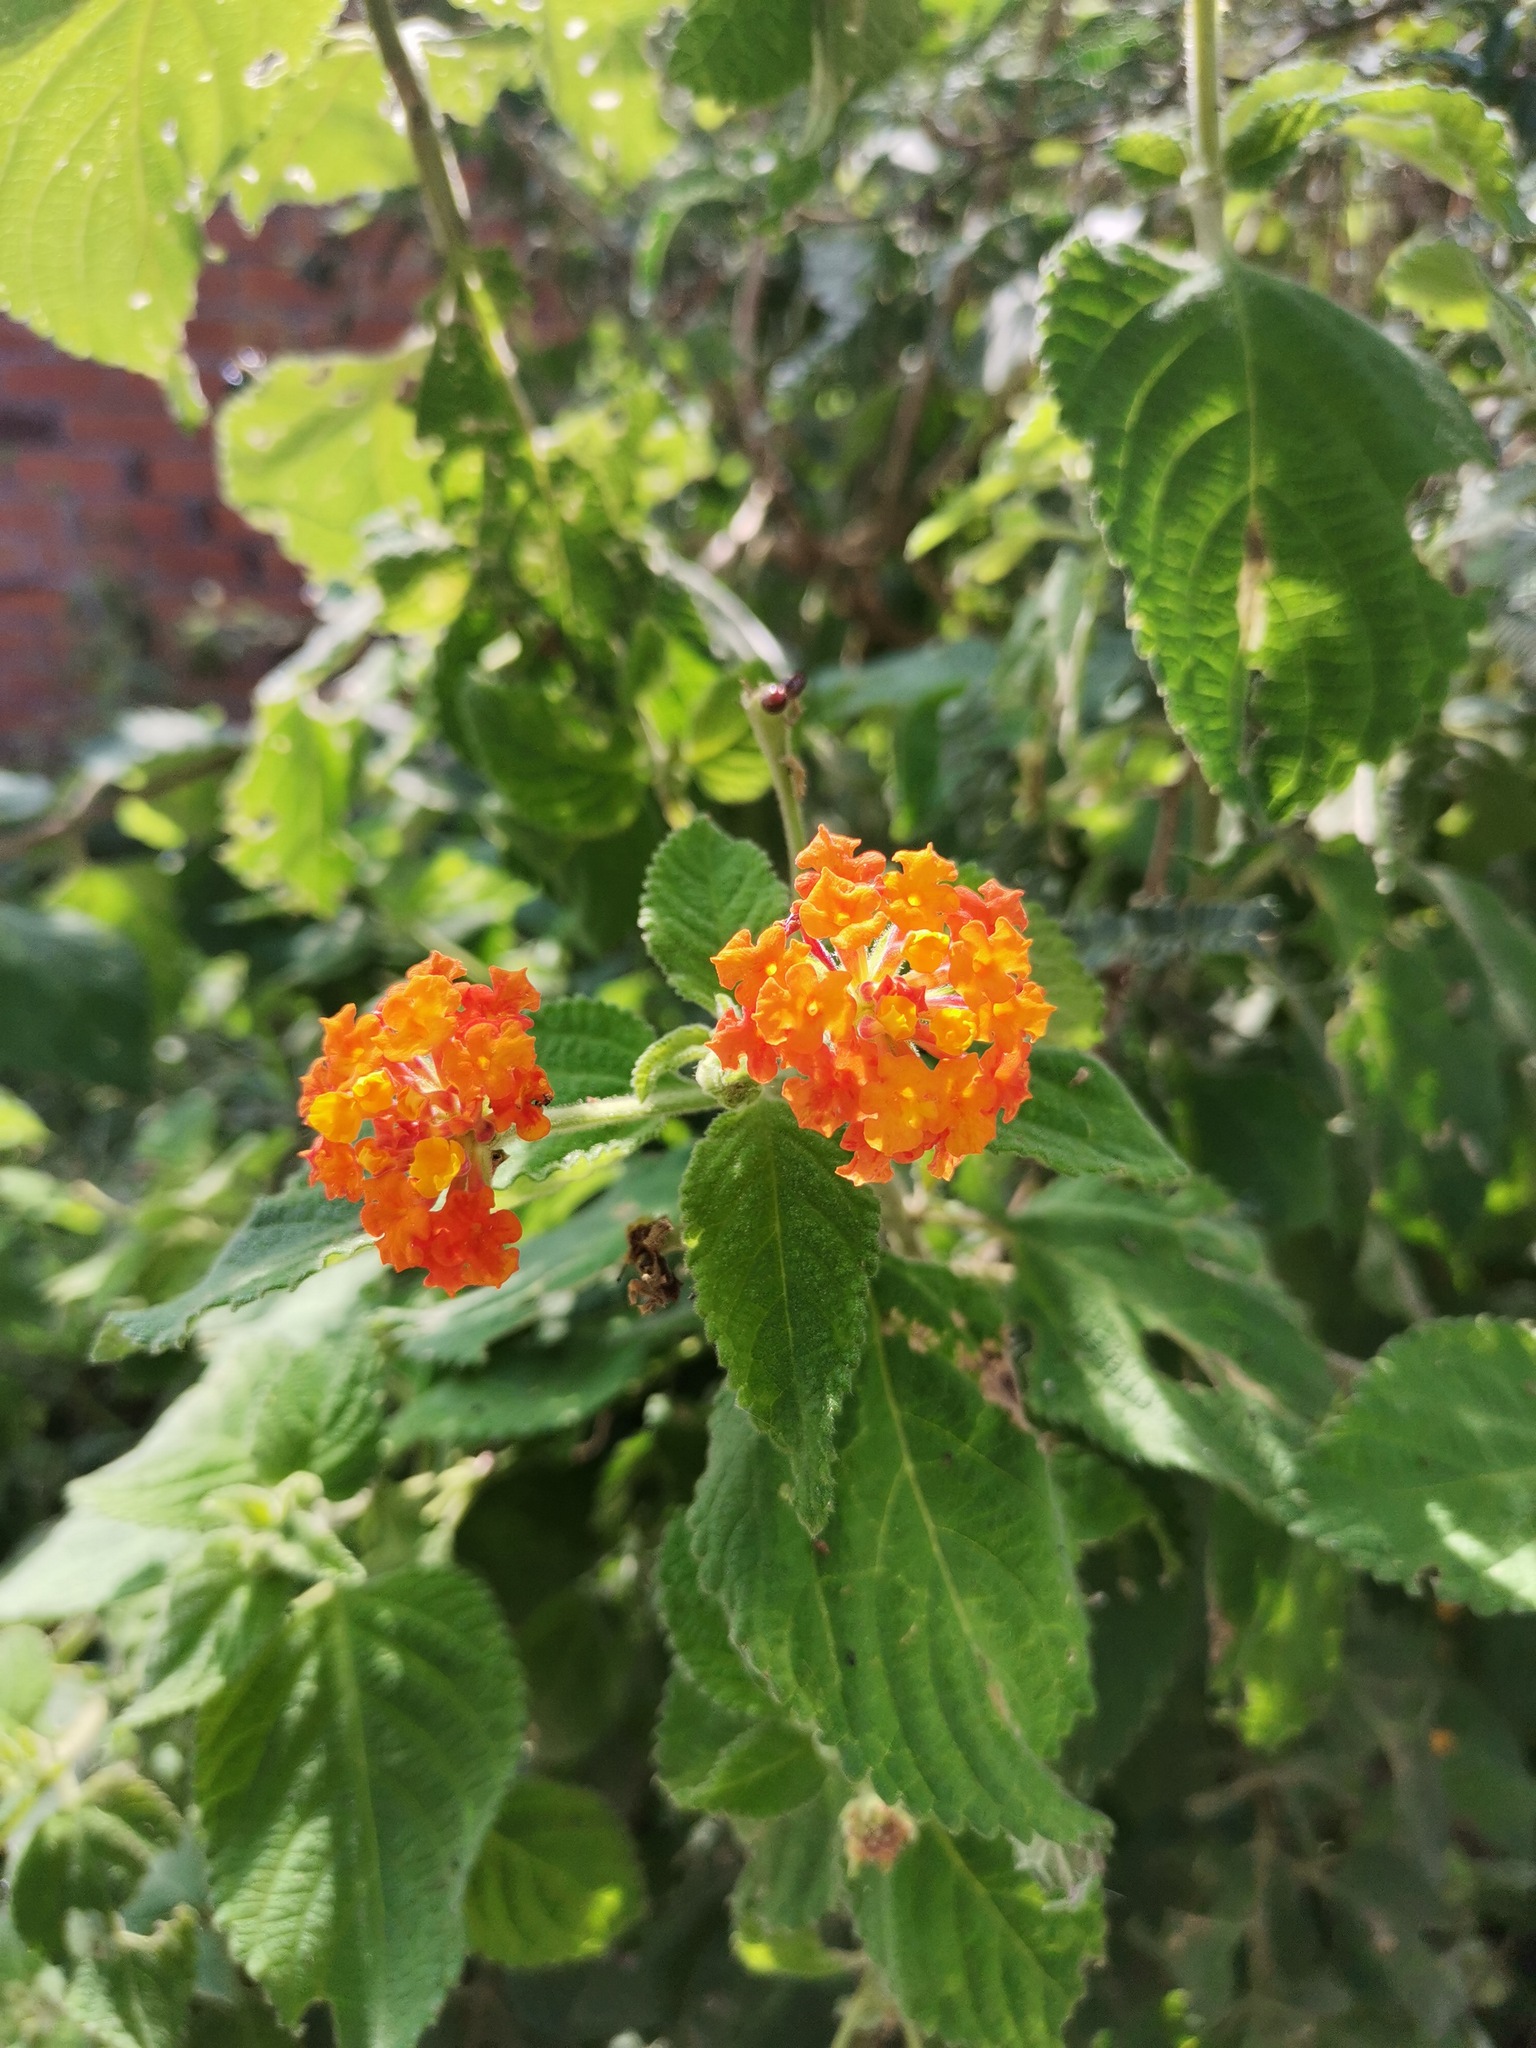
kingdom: Plantae
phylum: Tracheophyta
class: Magnoliopsida
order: Lamiales
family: Verbenaceae
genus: Lantana
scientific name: Lantana camara
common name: Lantana
